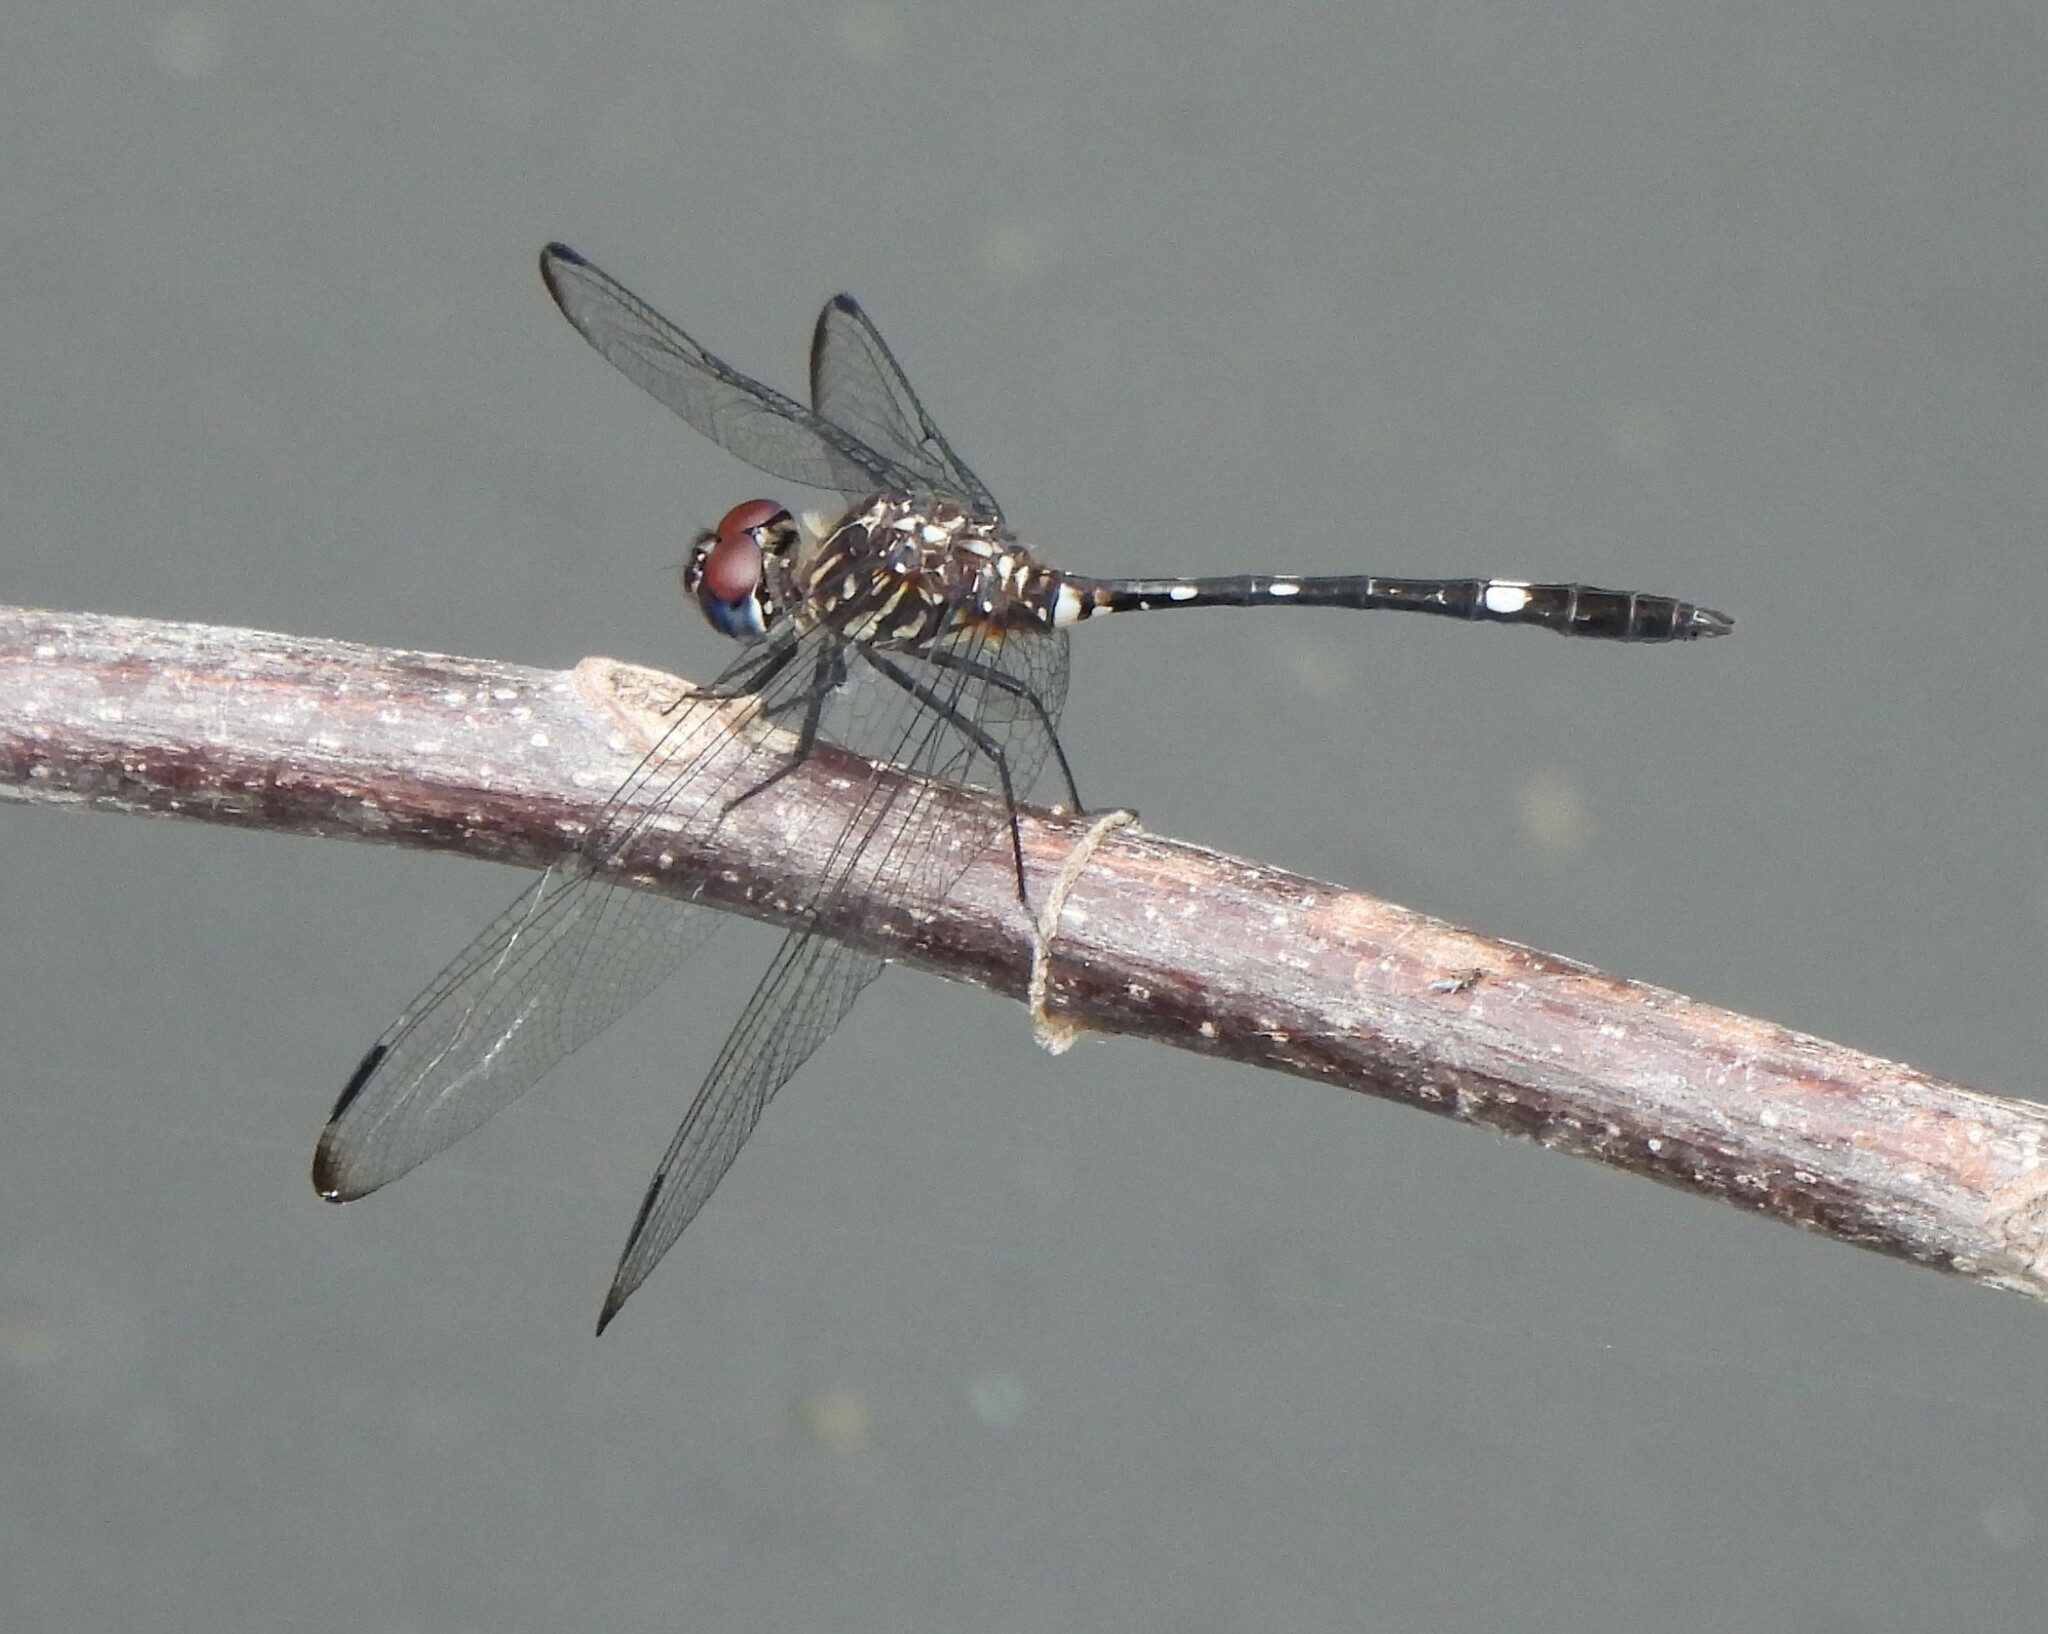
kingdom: Animalia
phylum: Arthropoda
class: Insecta
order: Odonata
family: Libellulidae
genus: Dythemis
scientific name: Dythemis velox
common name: Swift setwing
